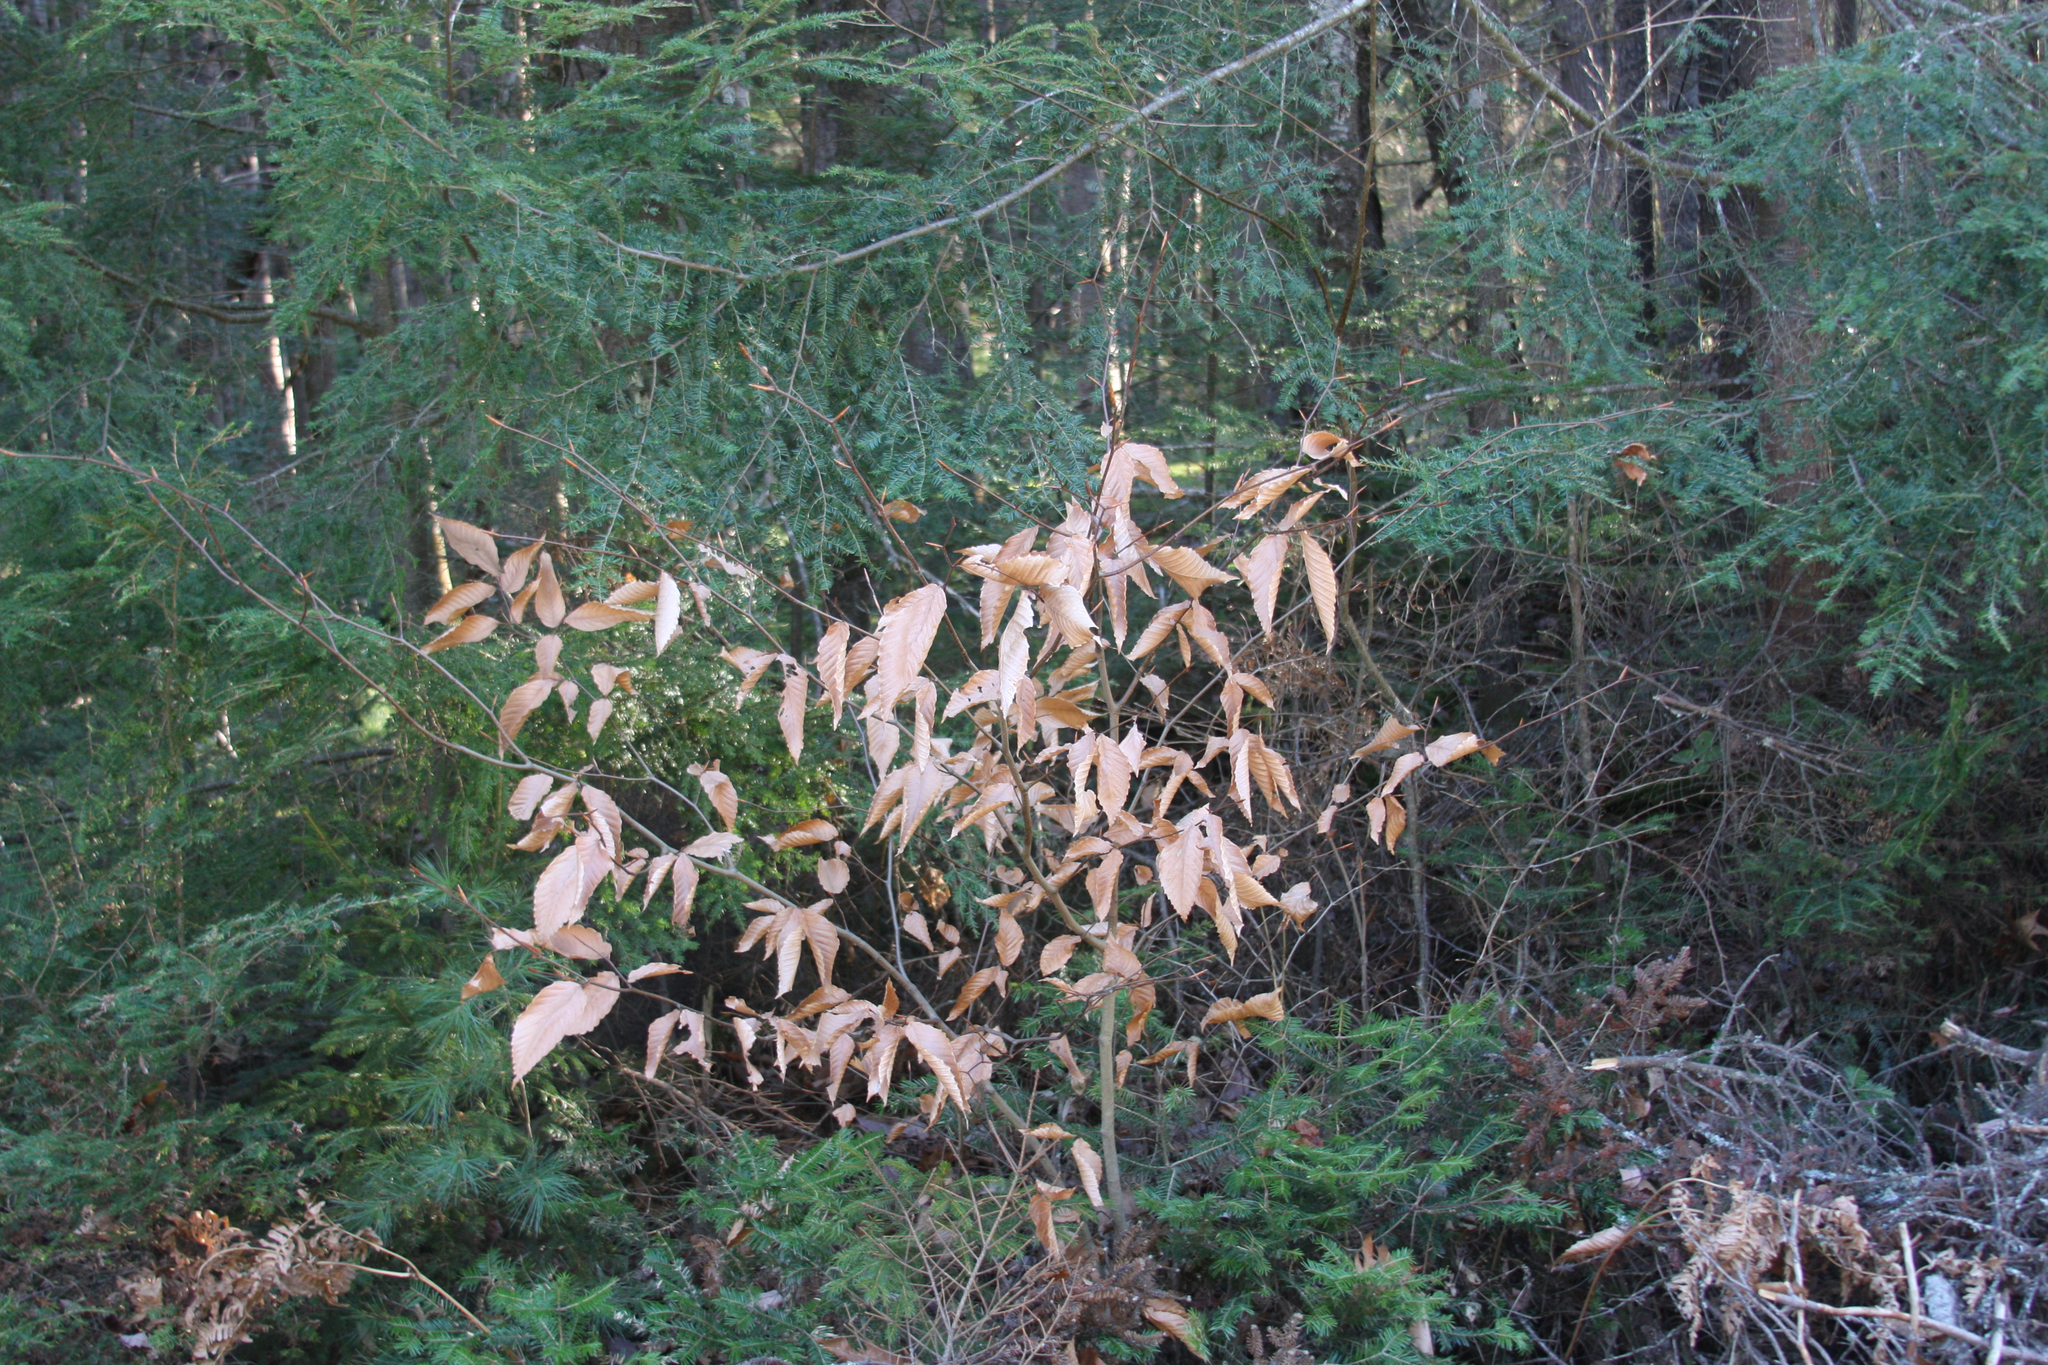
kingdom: Plantae
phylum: Tracheophyta
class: Magnoliopsida
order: Fagales
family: Fagaceae
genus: Fagus
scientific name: Fagus grandifolia
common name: American beech
